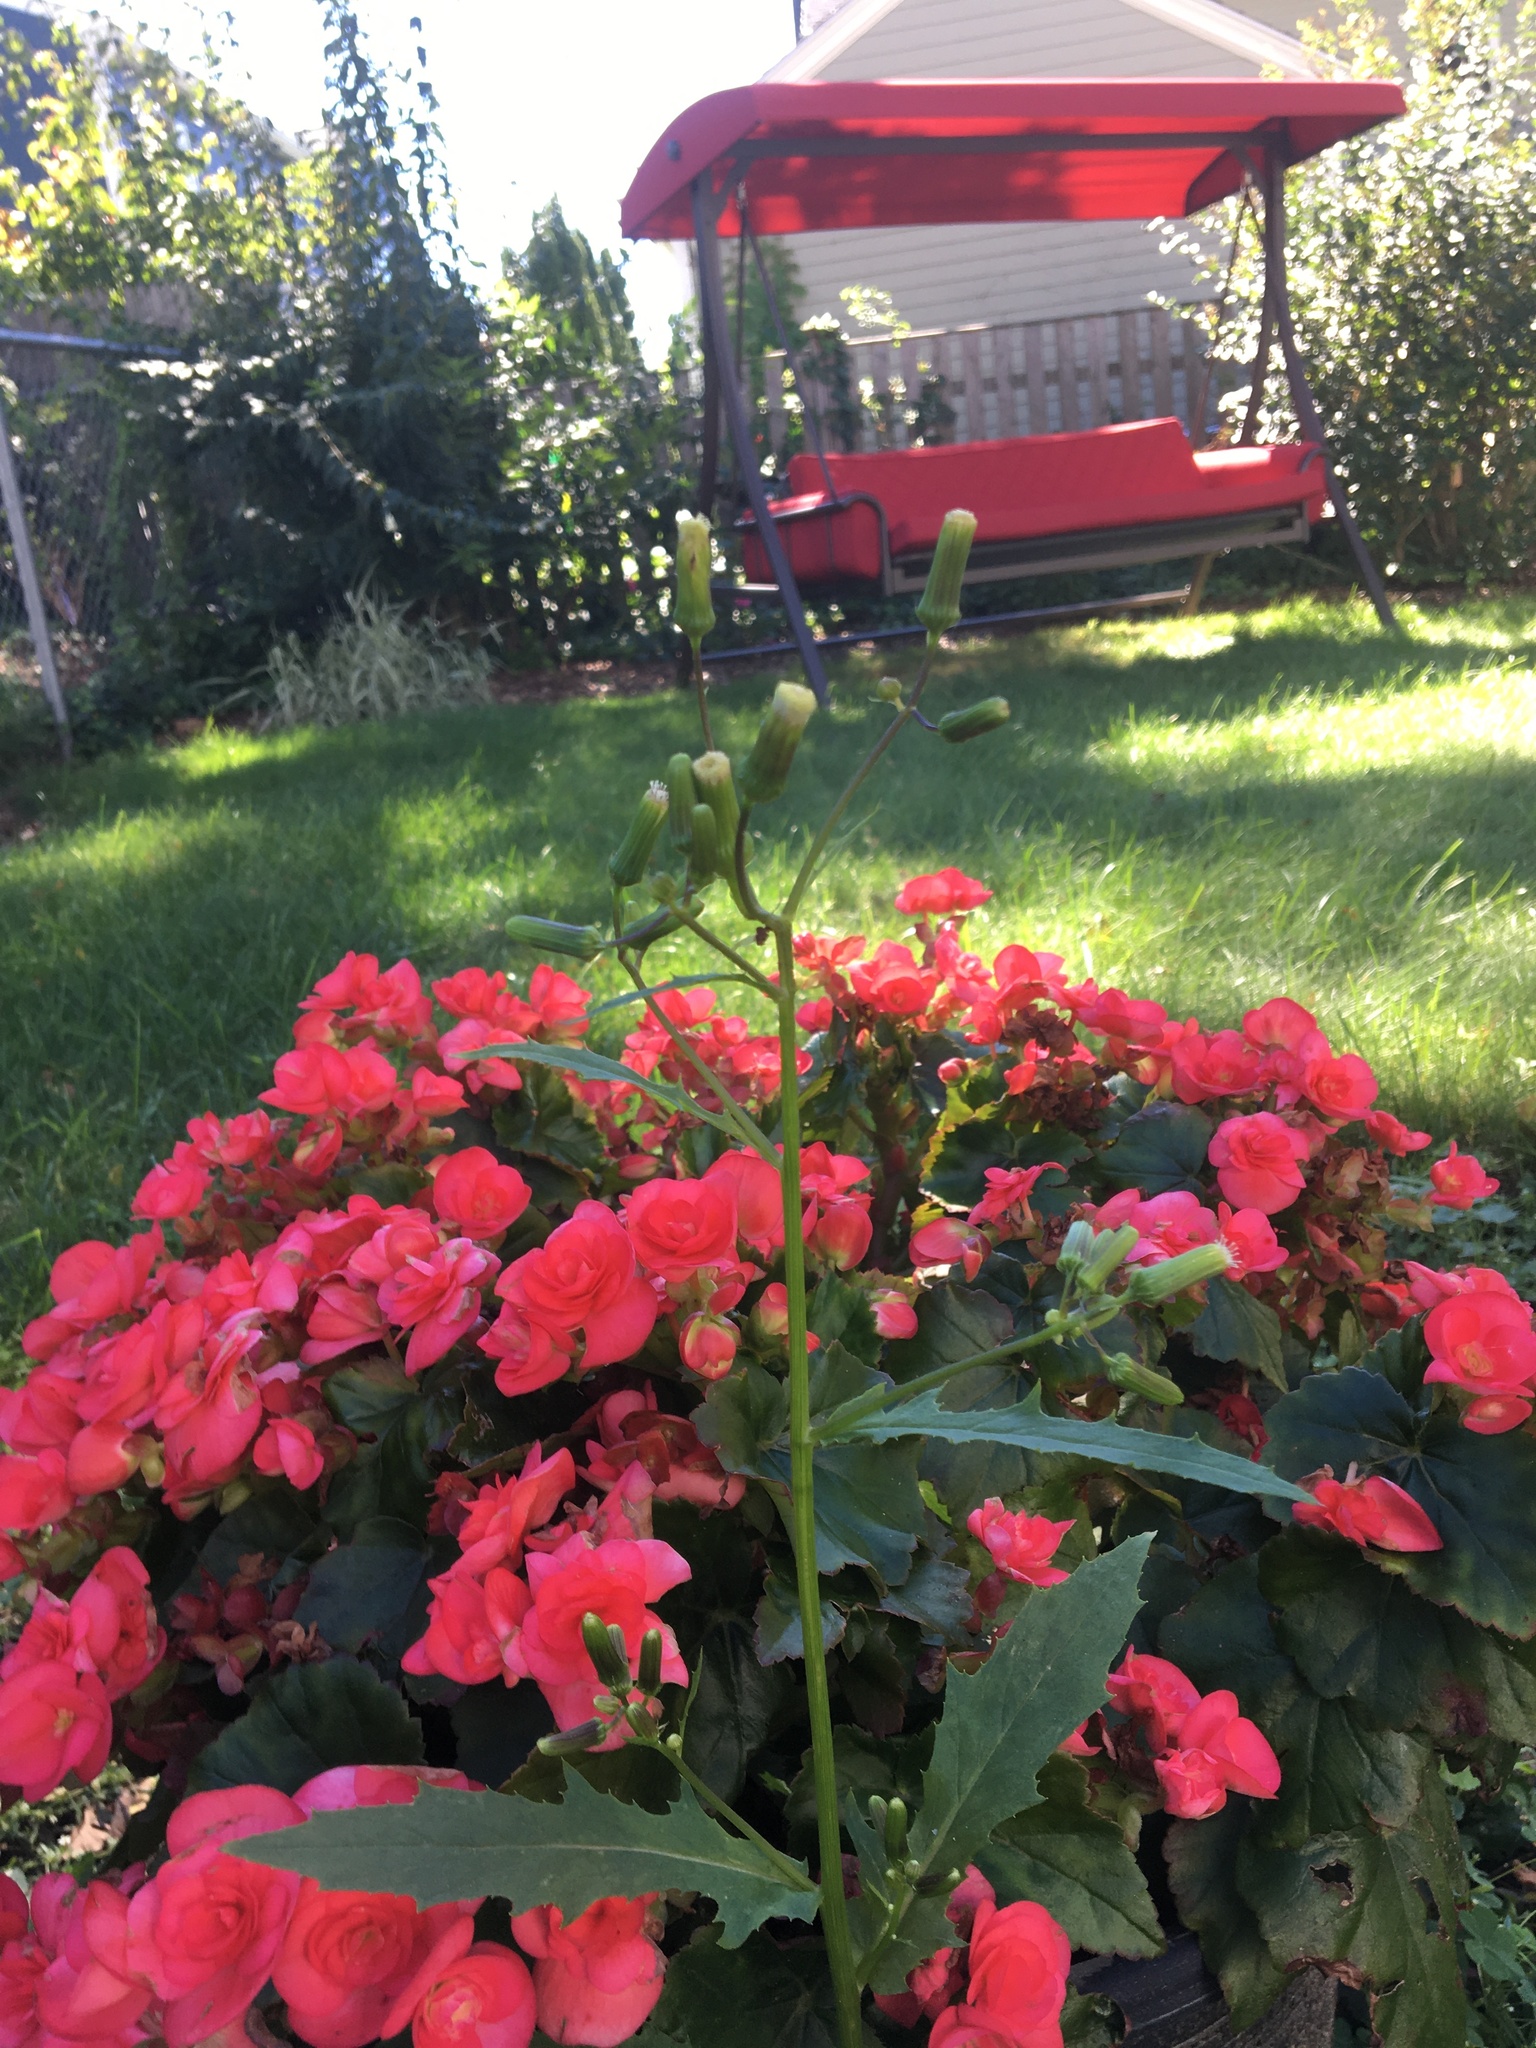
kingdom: Plantae
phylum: Tracheophyta
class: Magnoliopsida
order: Asterales
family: Asteraceae
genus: Erechtites
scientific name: Erechtites hieraciifolius
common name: American burnweed
